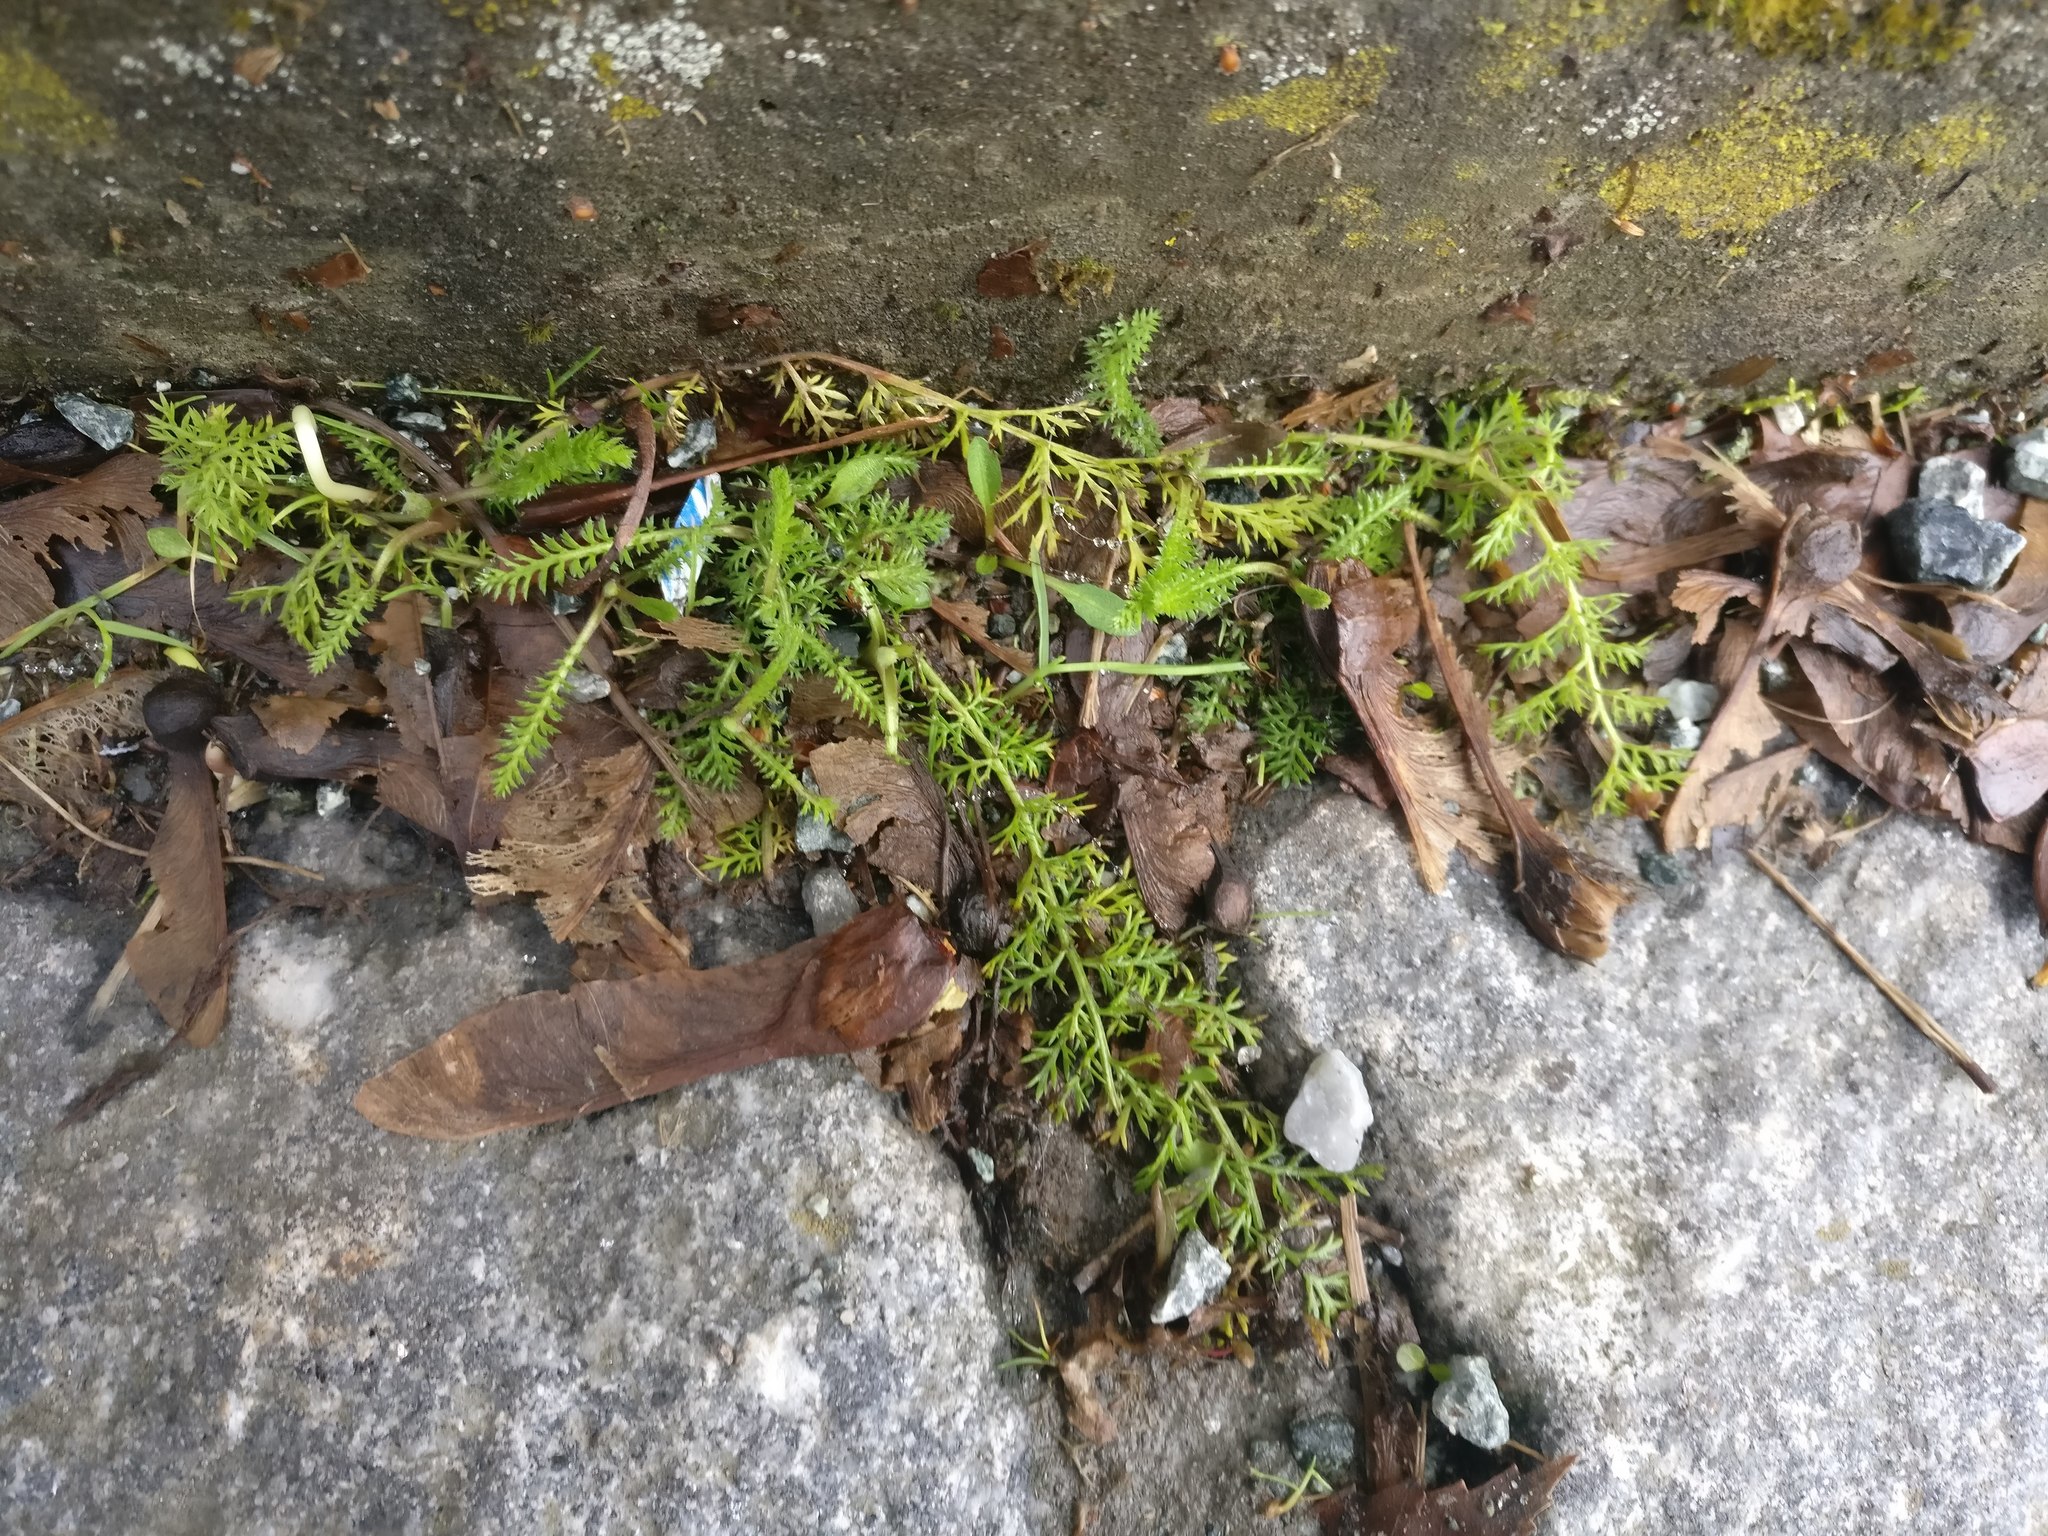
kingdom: Plantae
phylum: Tracheophyta
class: Magnoliopsida
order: Asterales
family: Asteraceae
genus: Achillea
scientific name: Achillea millefolium
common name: Yarrow
